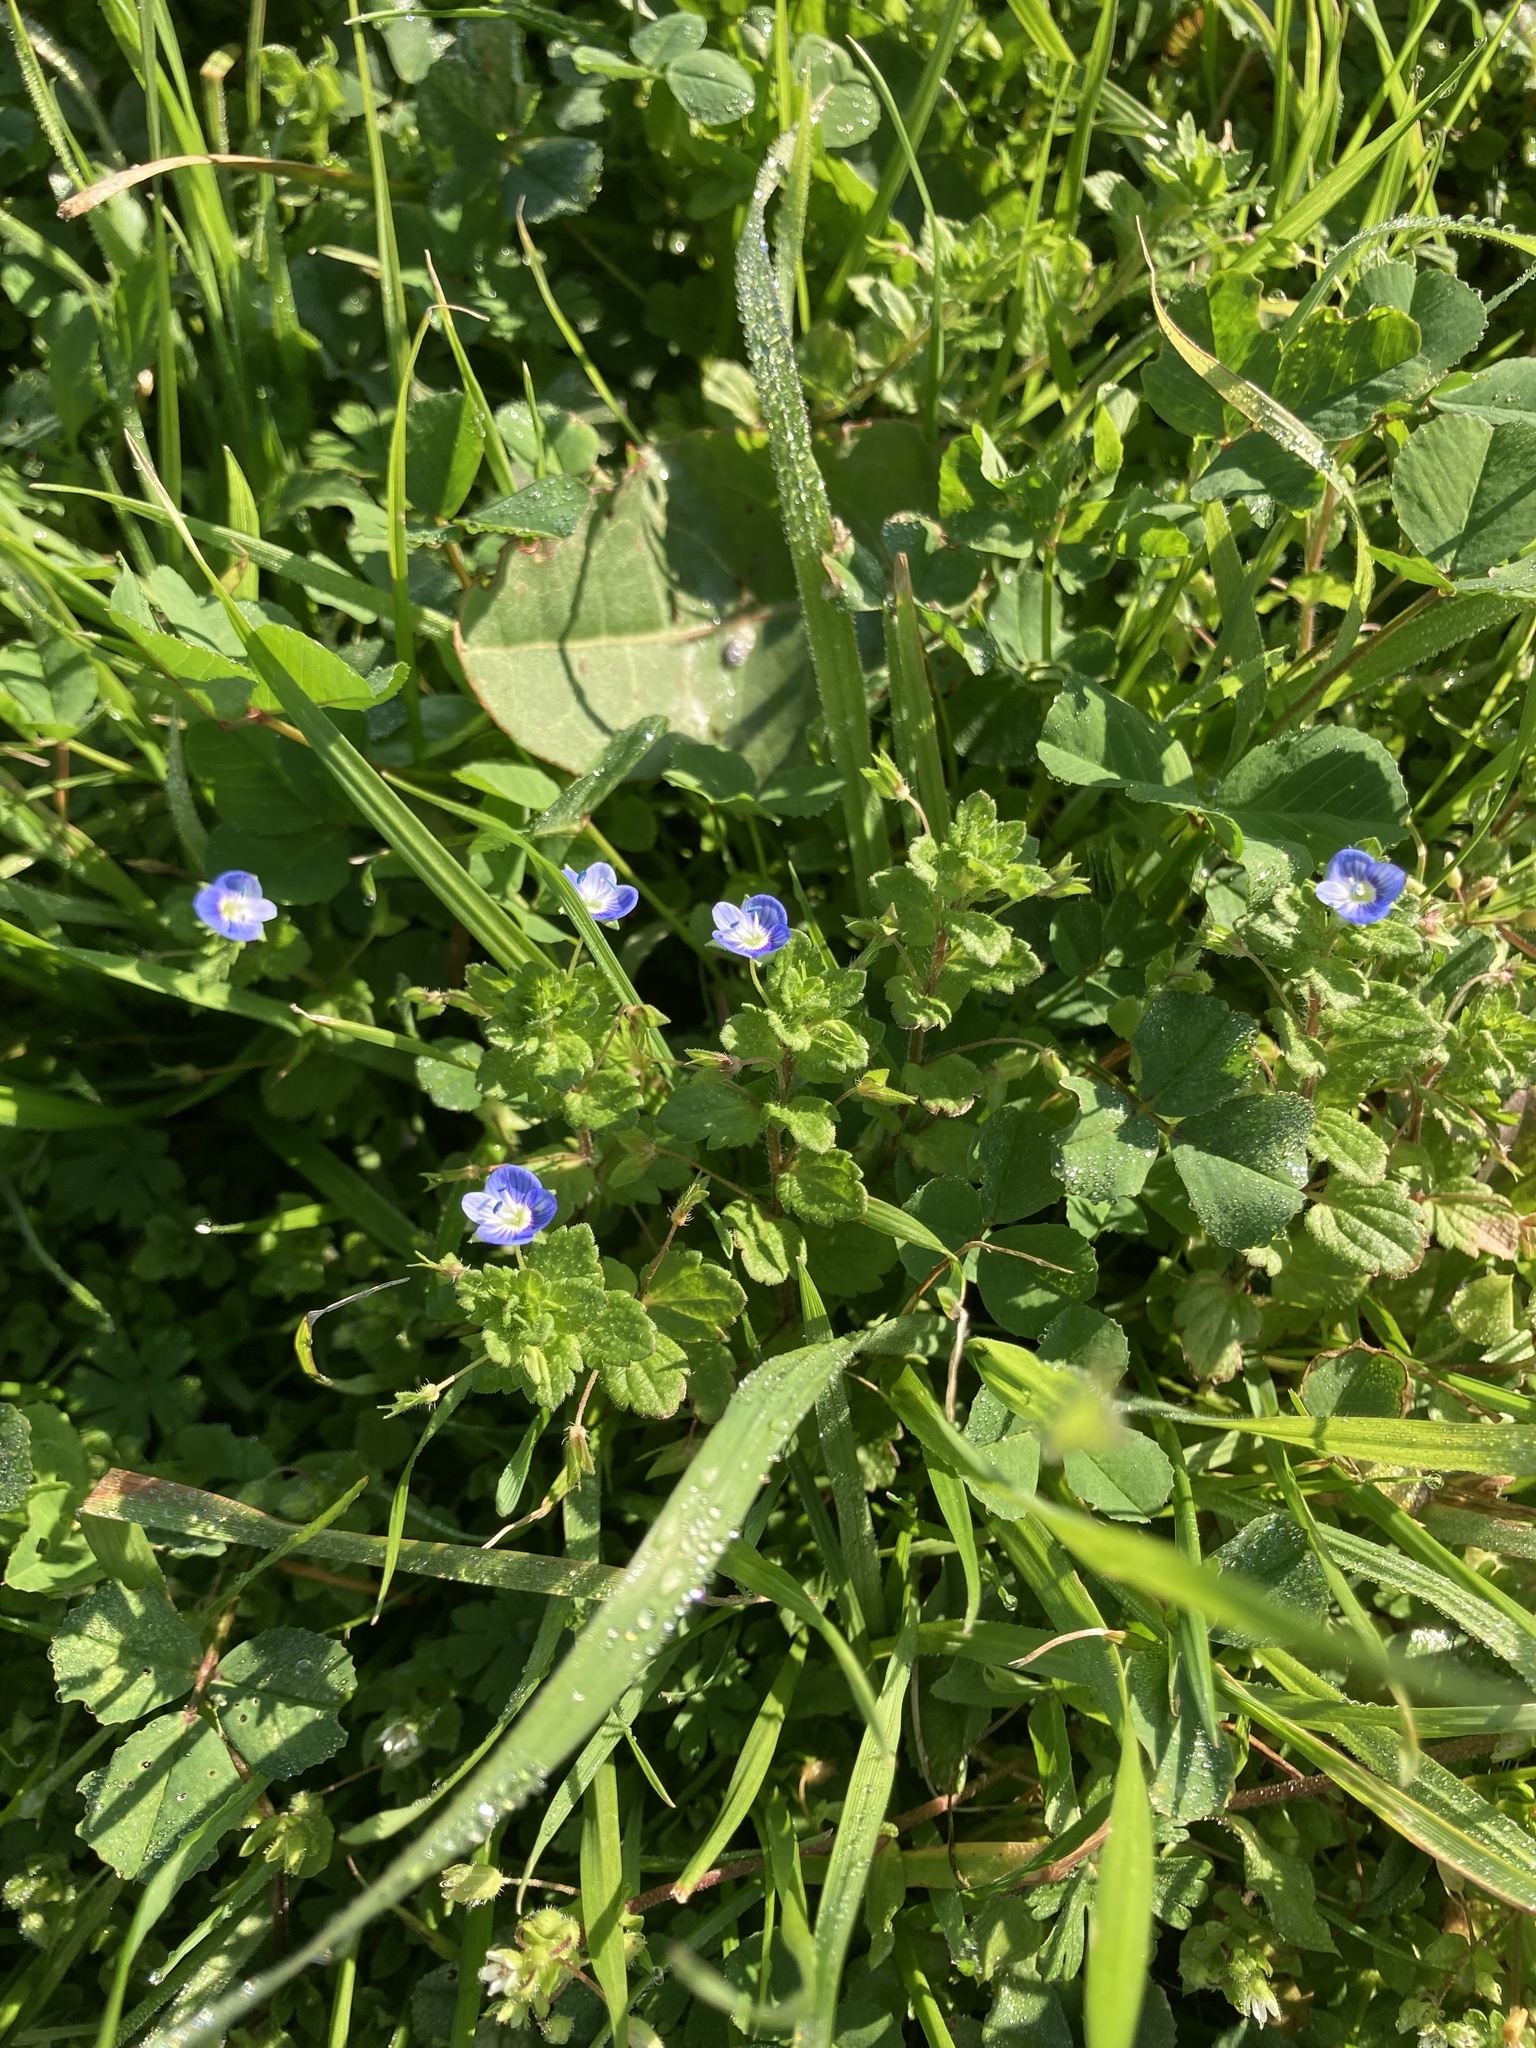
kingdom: Plantae
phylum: Tracheophyta
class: Magnoliopsida
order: Lamiales
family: Plantaginaceae
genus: Veronica
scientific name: Veronica persica
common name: Common field-speedwell
